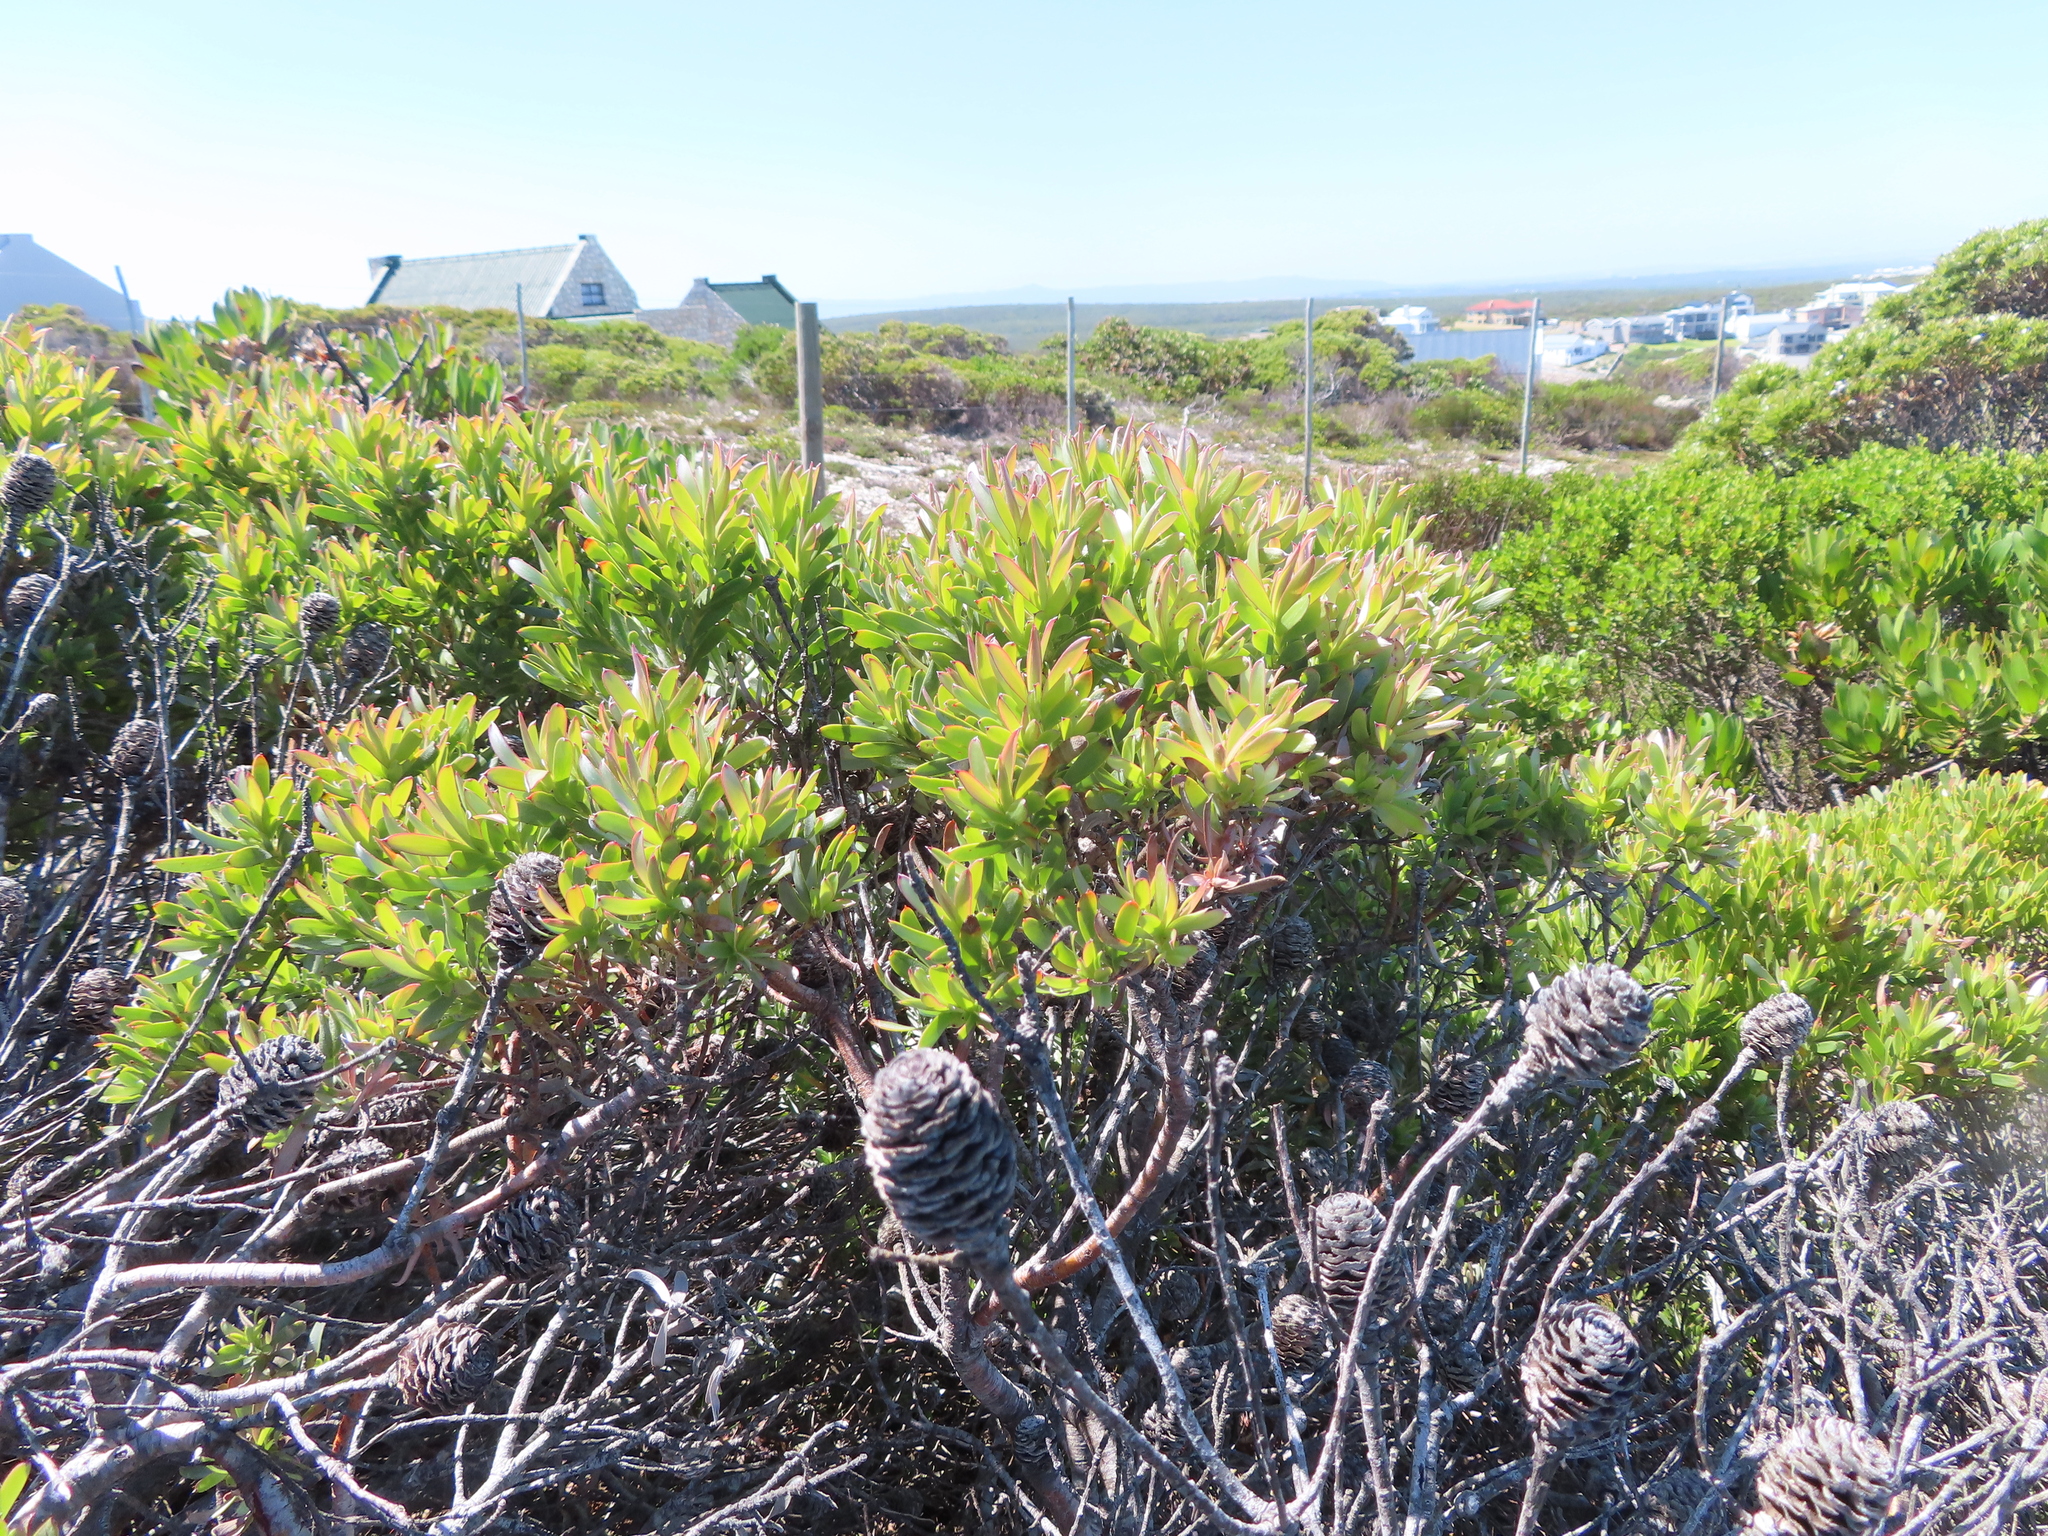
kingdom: Plantae
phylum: Tracheophyta
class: Magnoliopsida
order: Proteales
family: Proteaceae
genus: Leucadendron
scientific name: Leucadendron meridianum
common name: Limestone conebush
